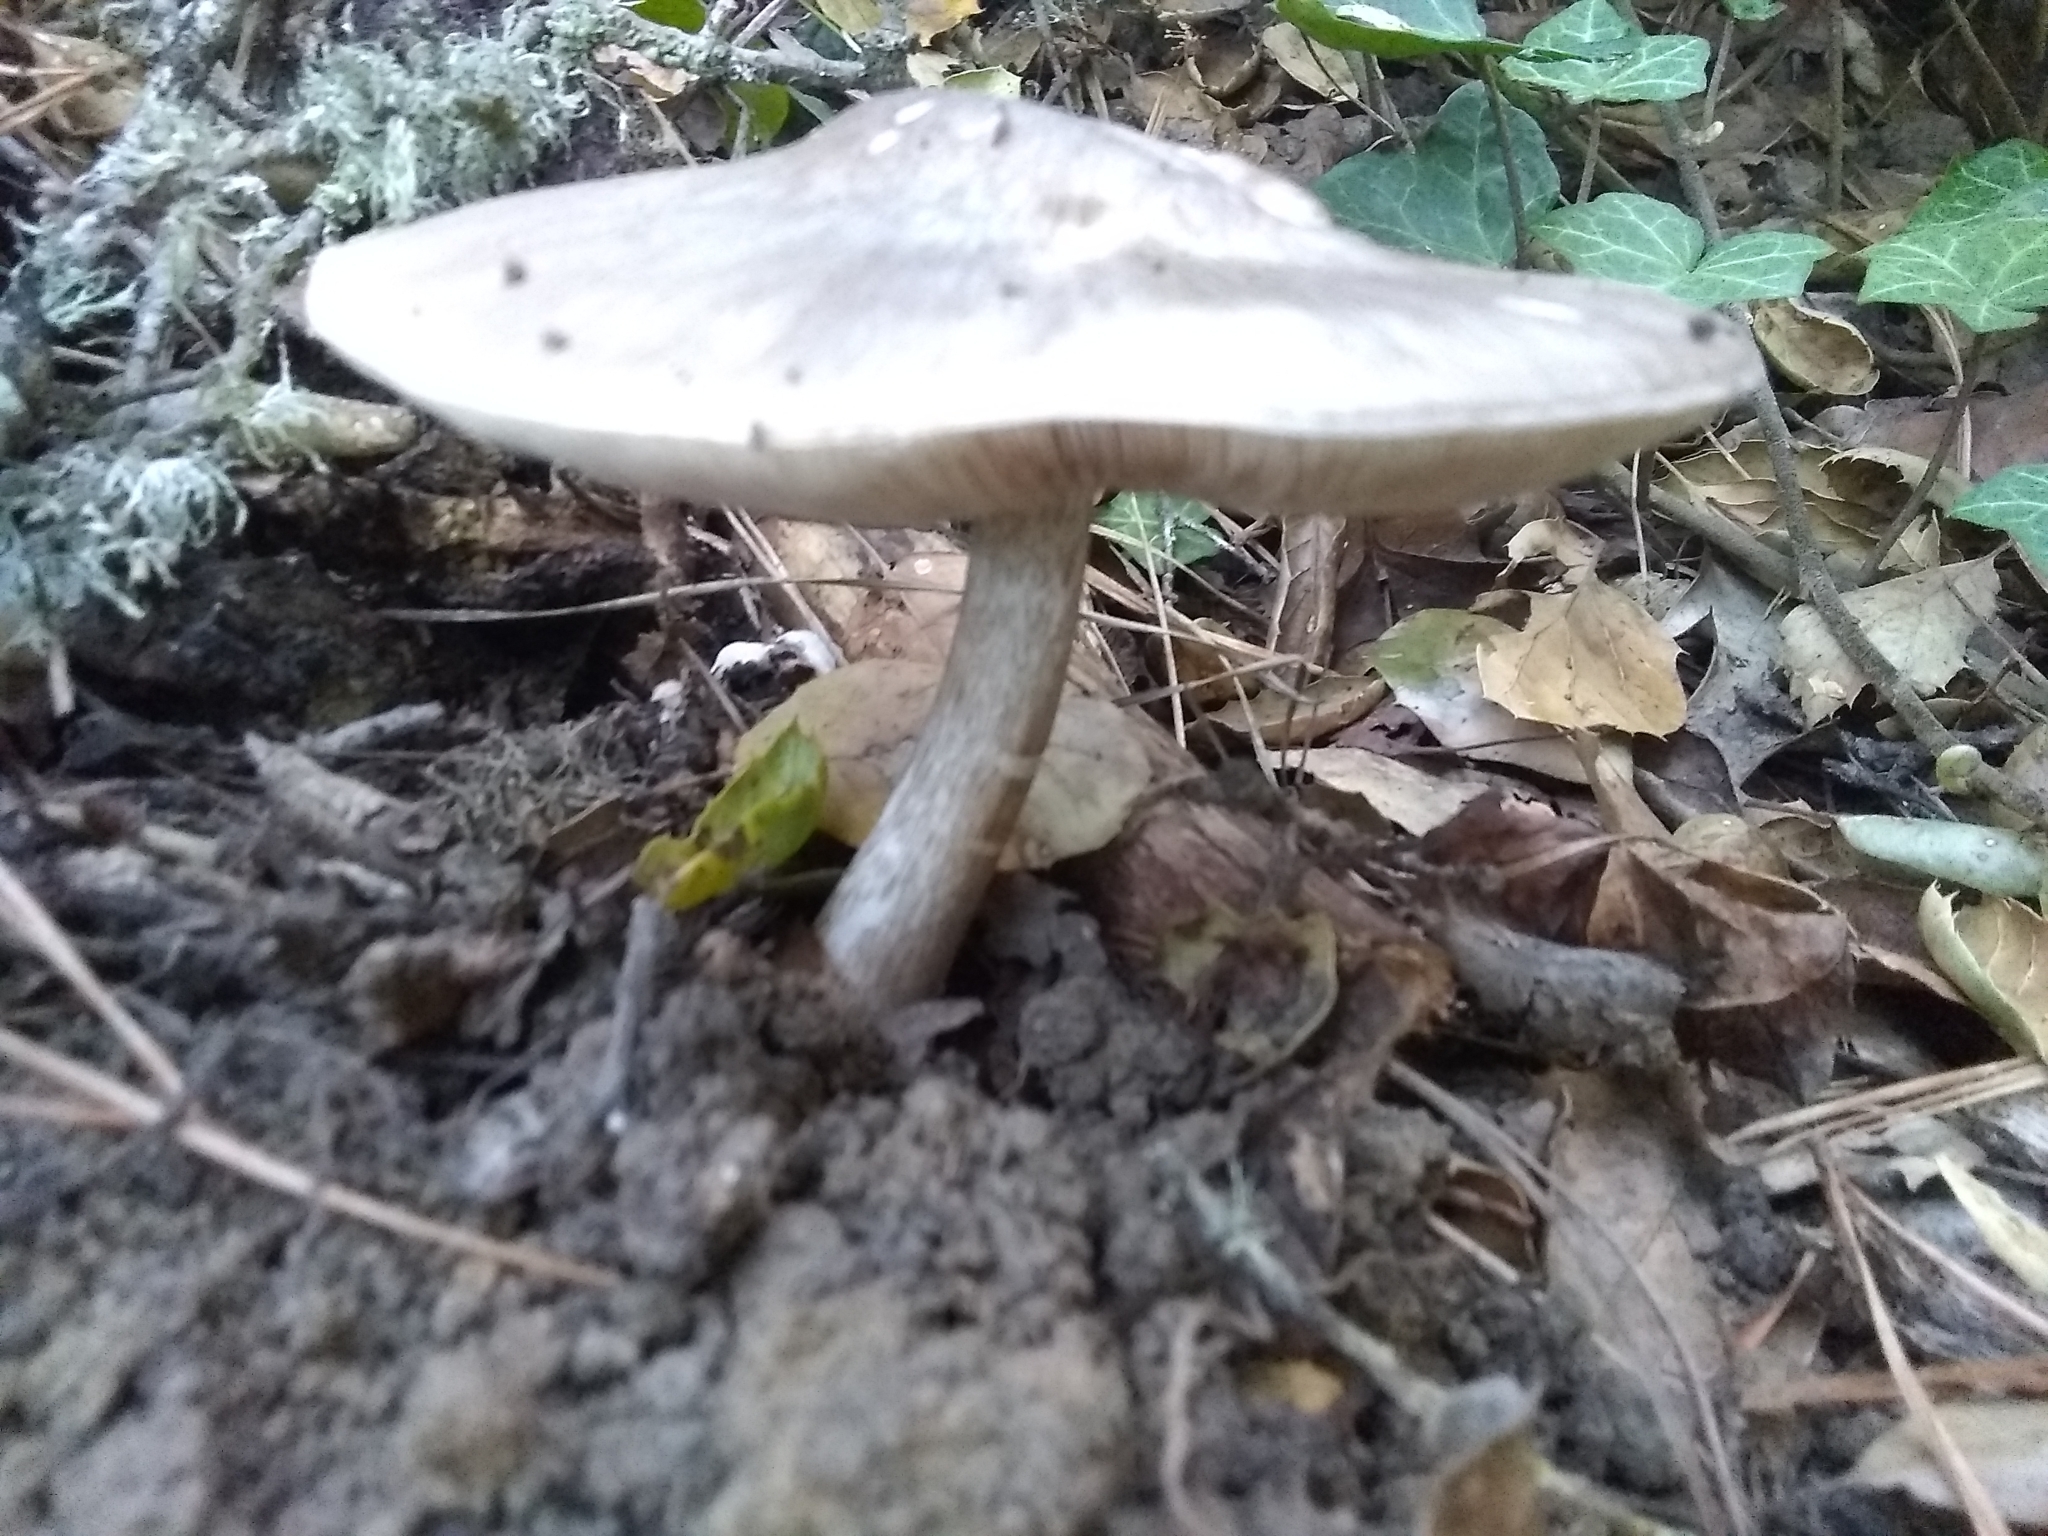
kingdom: Fungi
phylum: Basidiomycota
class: Agaricomycetes
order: Agaricales
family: Pluteaceae
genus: Pluteus
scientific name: Pluteus exilis
